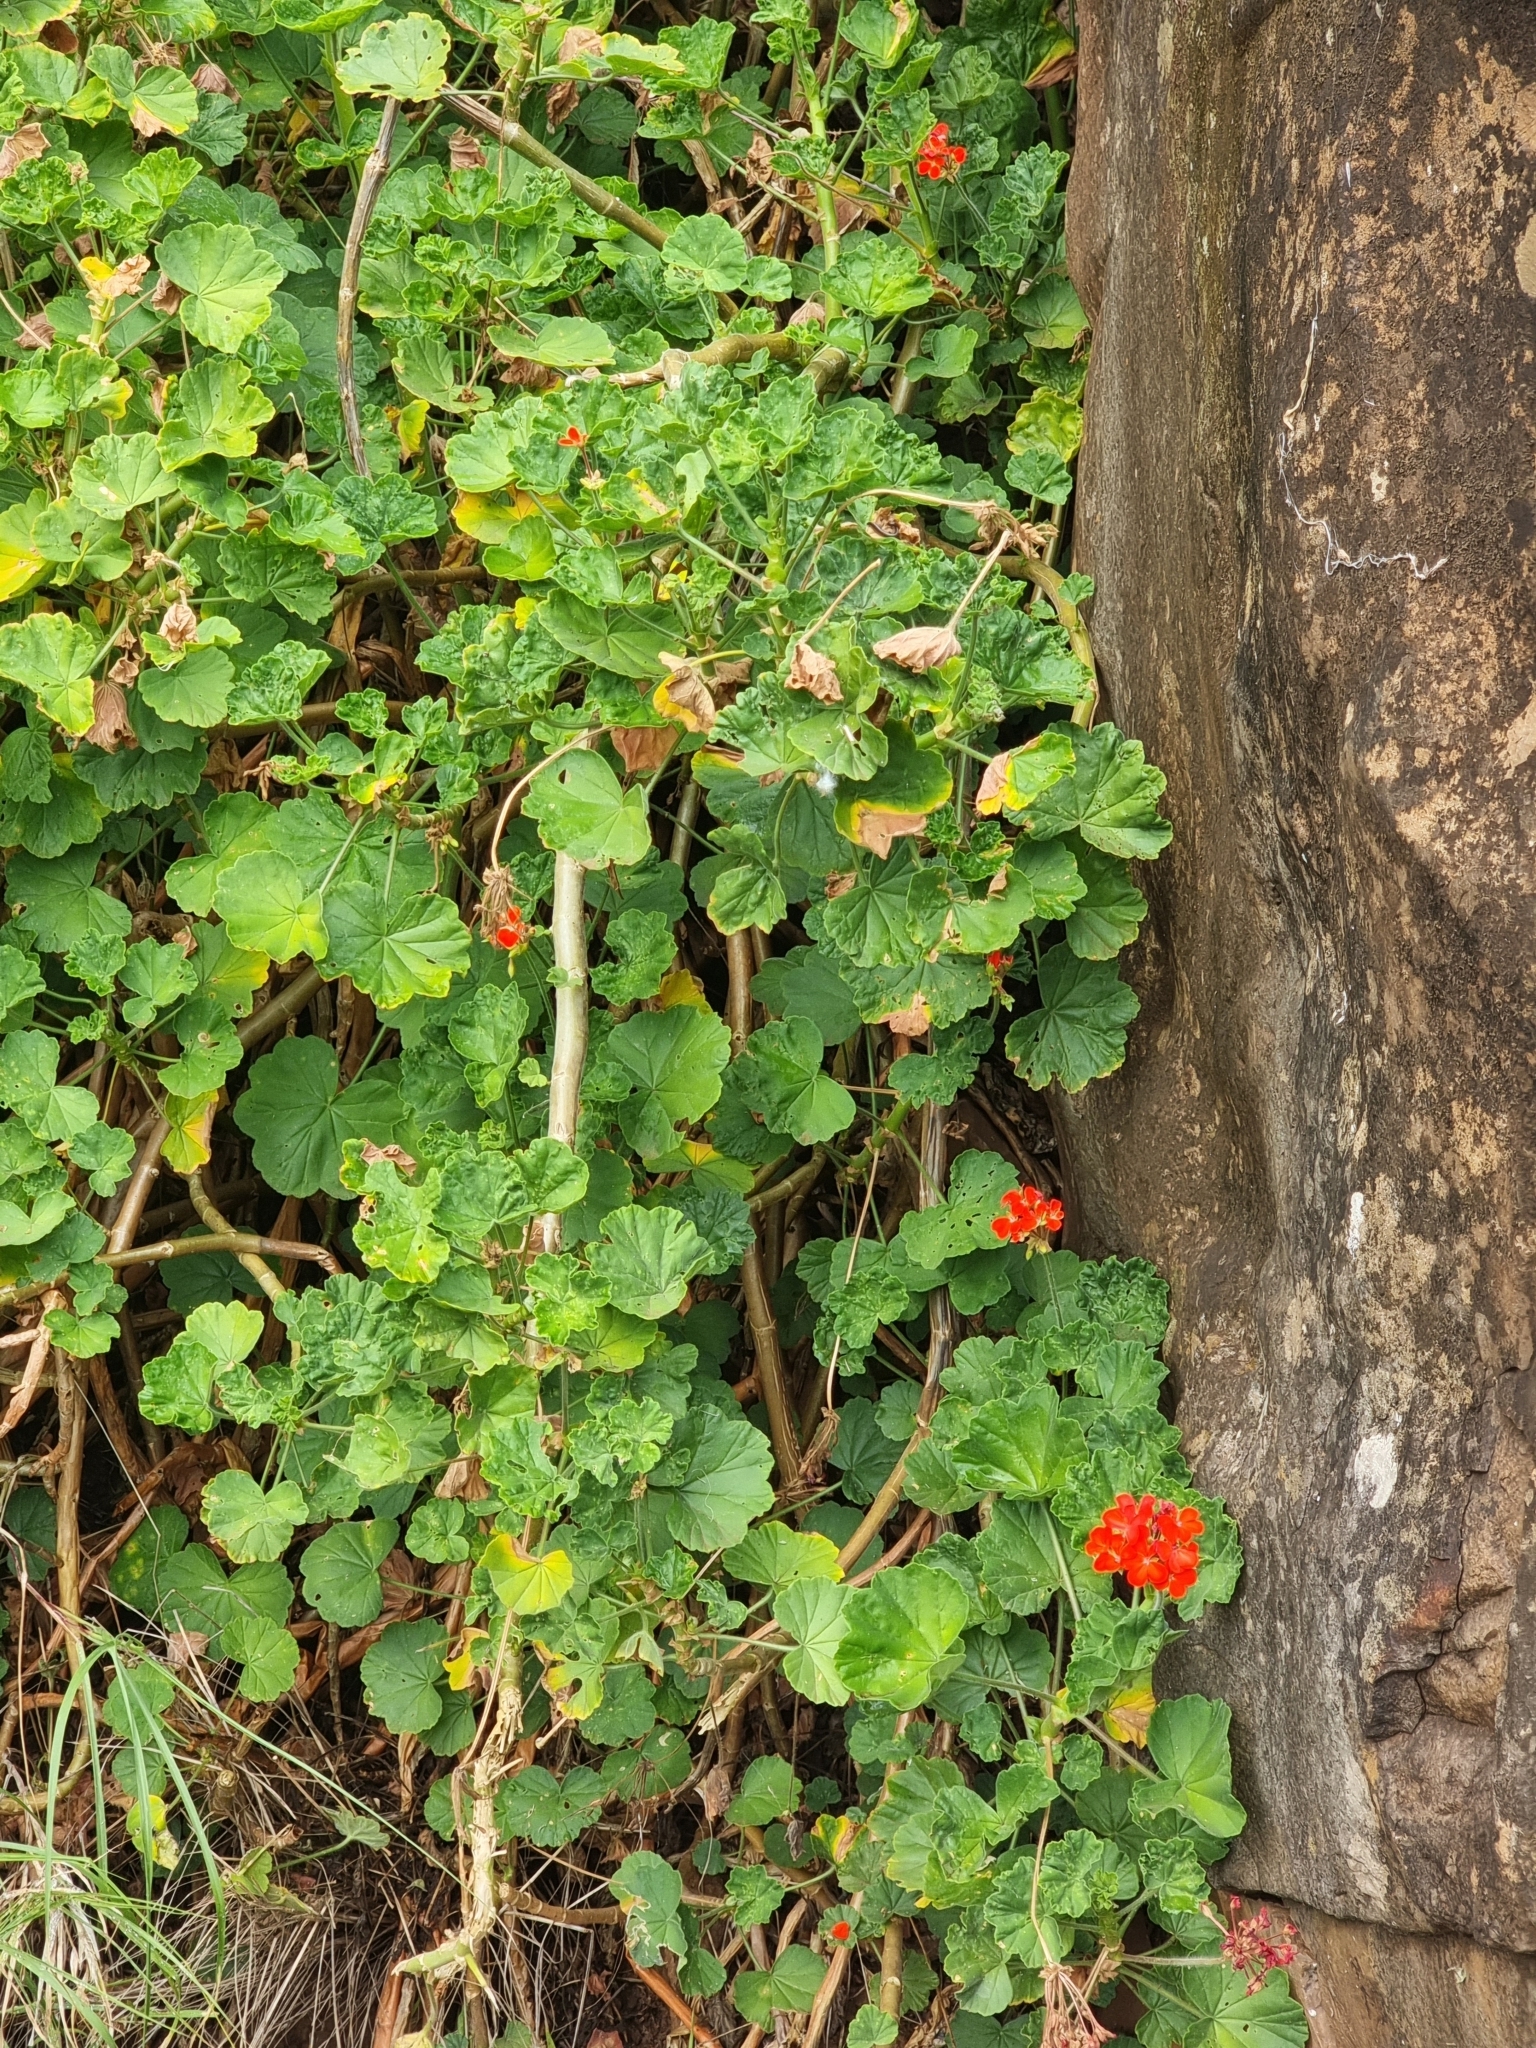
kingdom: Plantae
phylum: Tracheophyta
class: Magnoliopsida
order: Geraniales
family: Geraniaceae
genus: Pelargonium
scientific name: Pelargonium hybridum
